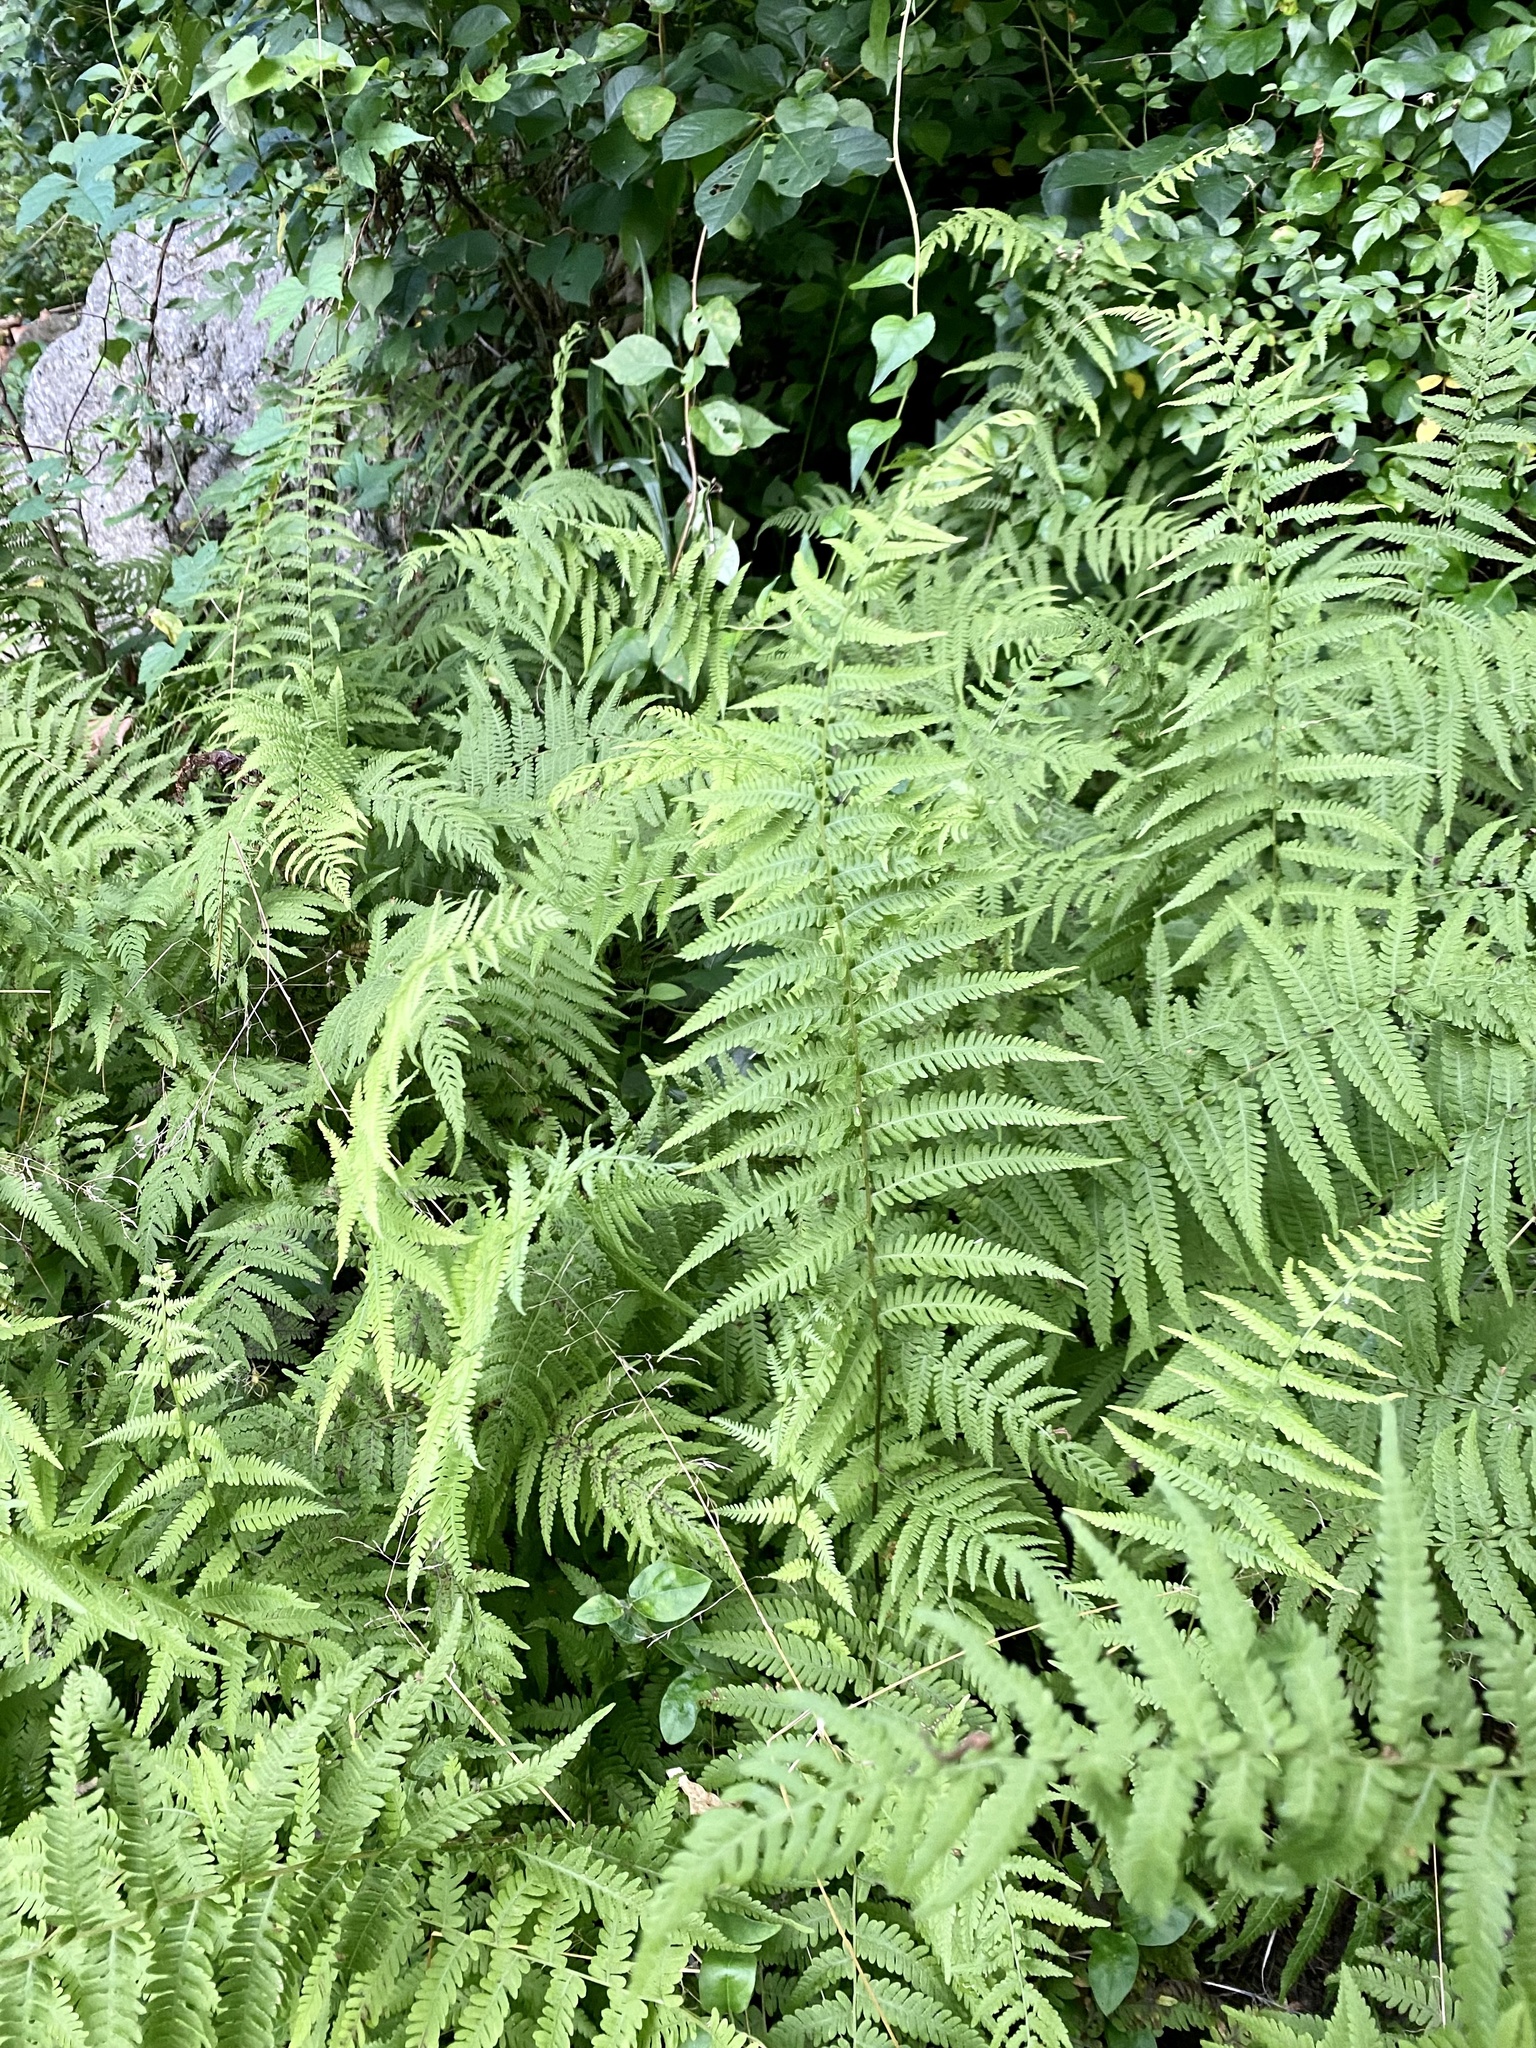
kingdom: Plantae
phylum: Tracheophyta
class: Polypodiopsida
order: Polypodiales
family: Thelypteridaceae
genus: Amauropelta
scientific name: Amauropelta noveboracensis
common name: New york fern
